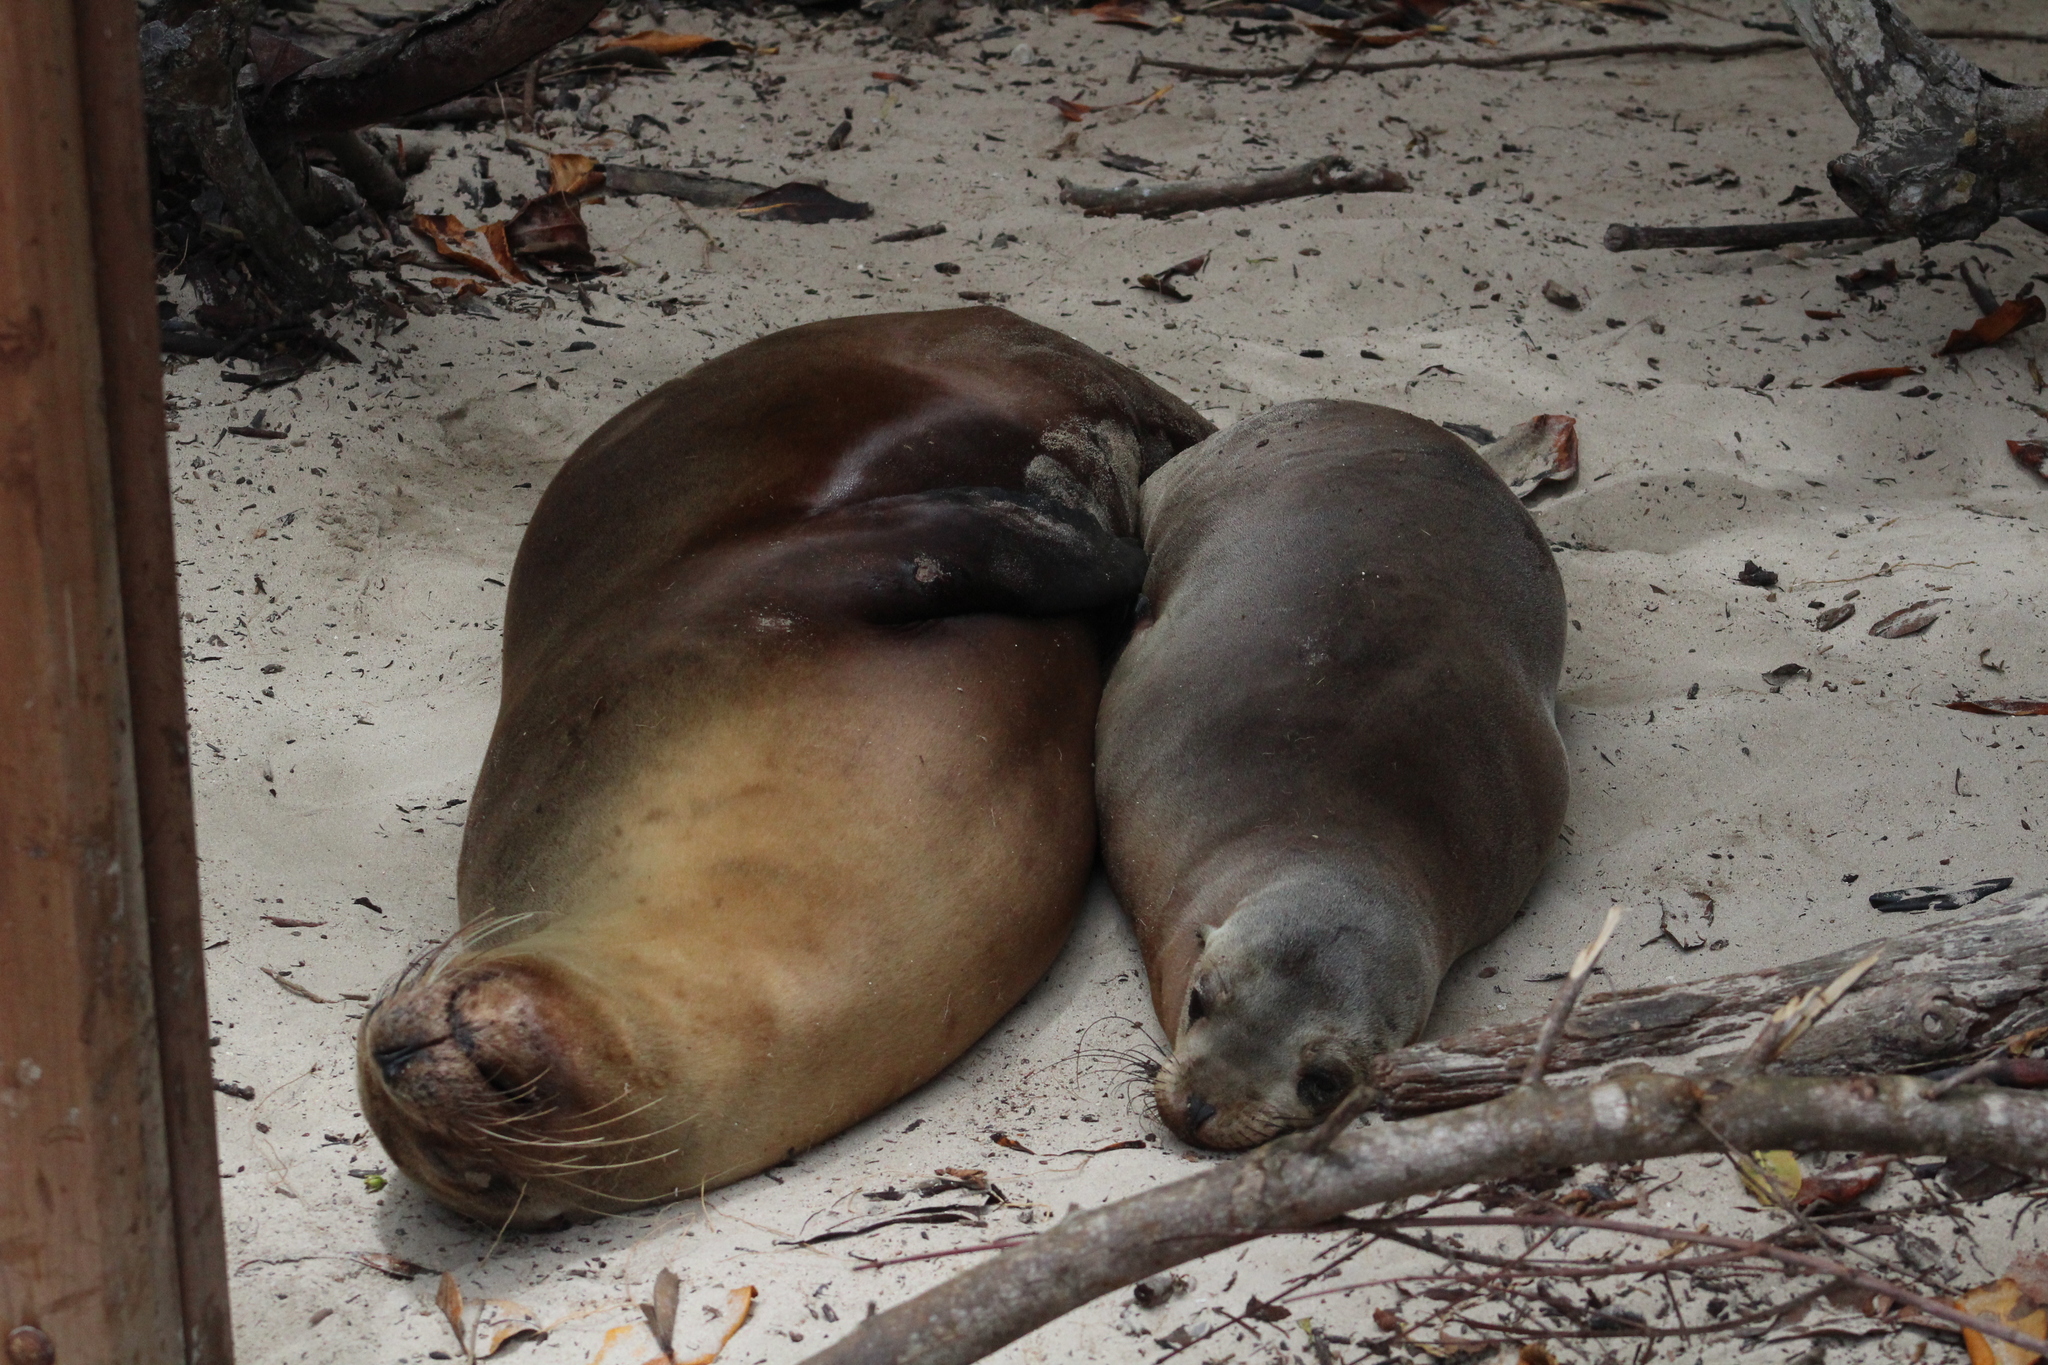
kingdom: Animalia
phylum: Chordata
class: Mammalia
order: Carnivora
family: Otariidae
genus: Zalophus
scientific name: Zalophus wollebaeki
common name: Galapagos sea lion
